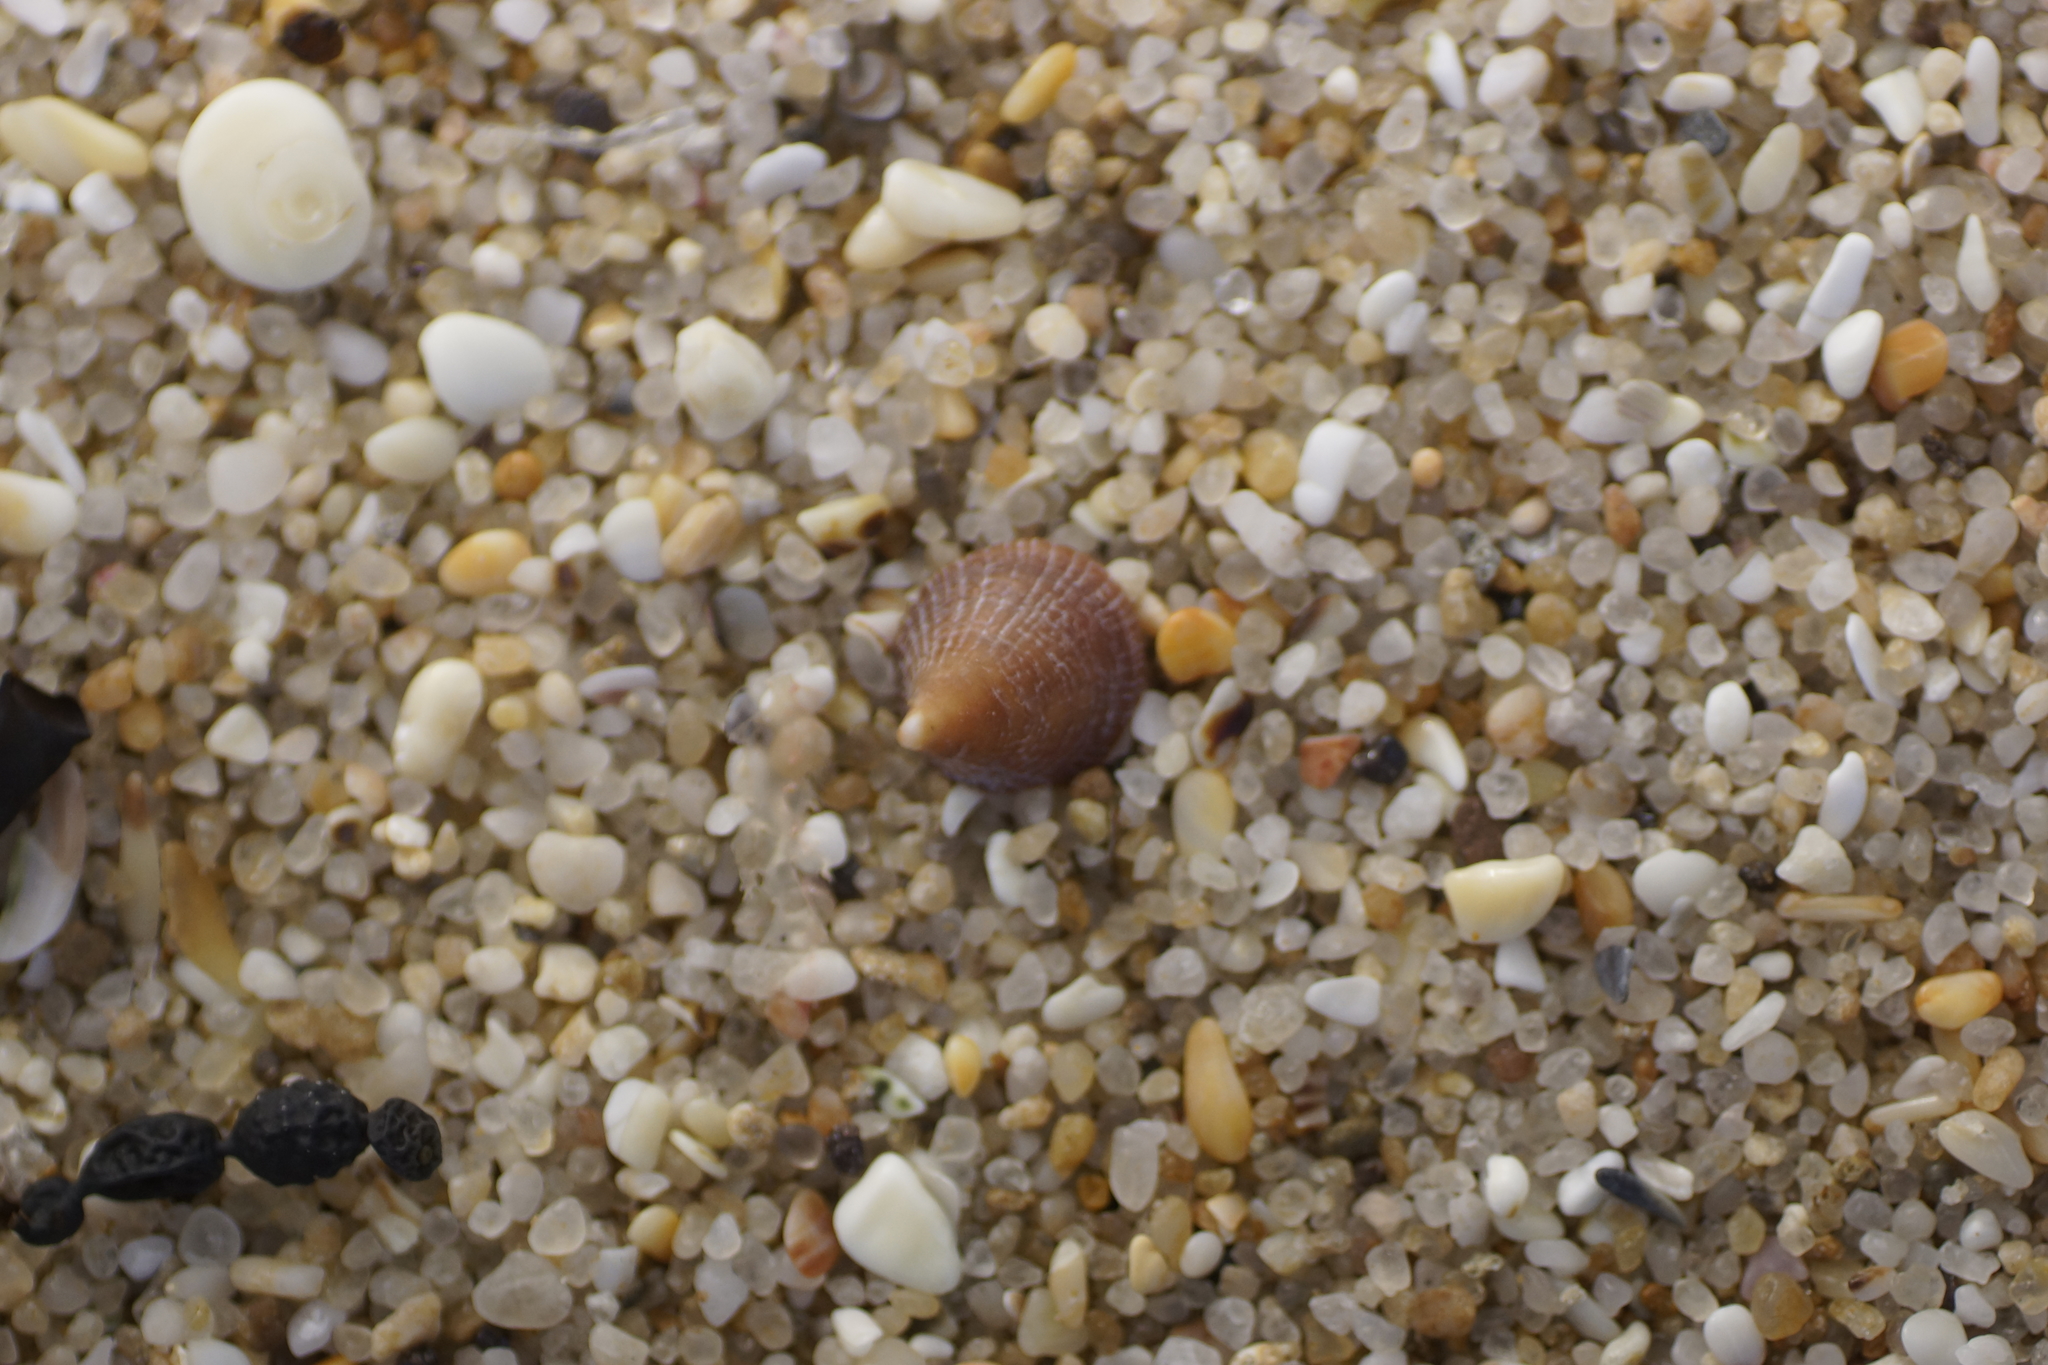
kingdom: Animalia
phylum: Mollusca
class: Gastropoda
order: Littorinimorpha
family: Hipponicidae
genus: Sabia
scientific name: Sabia australis
